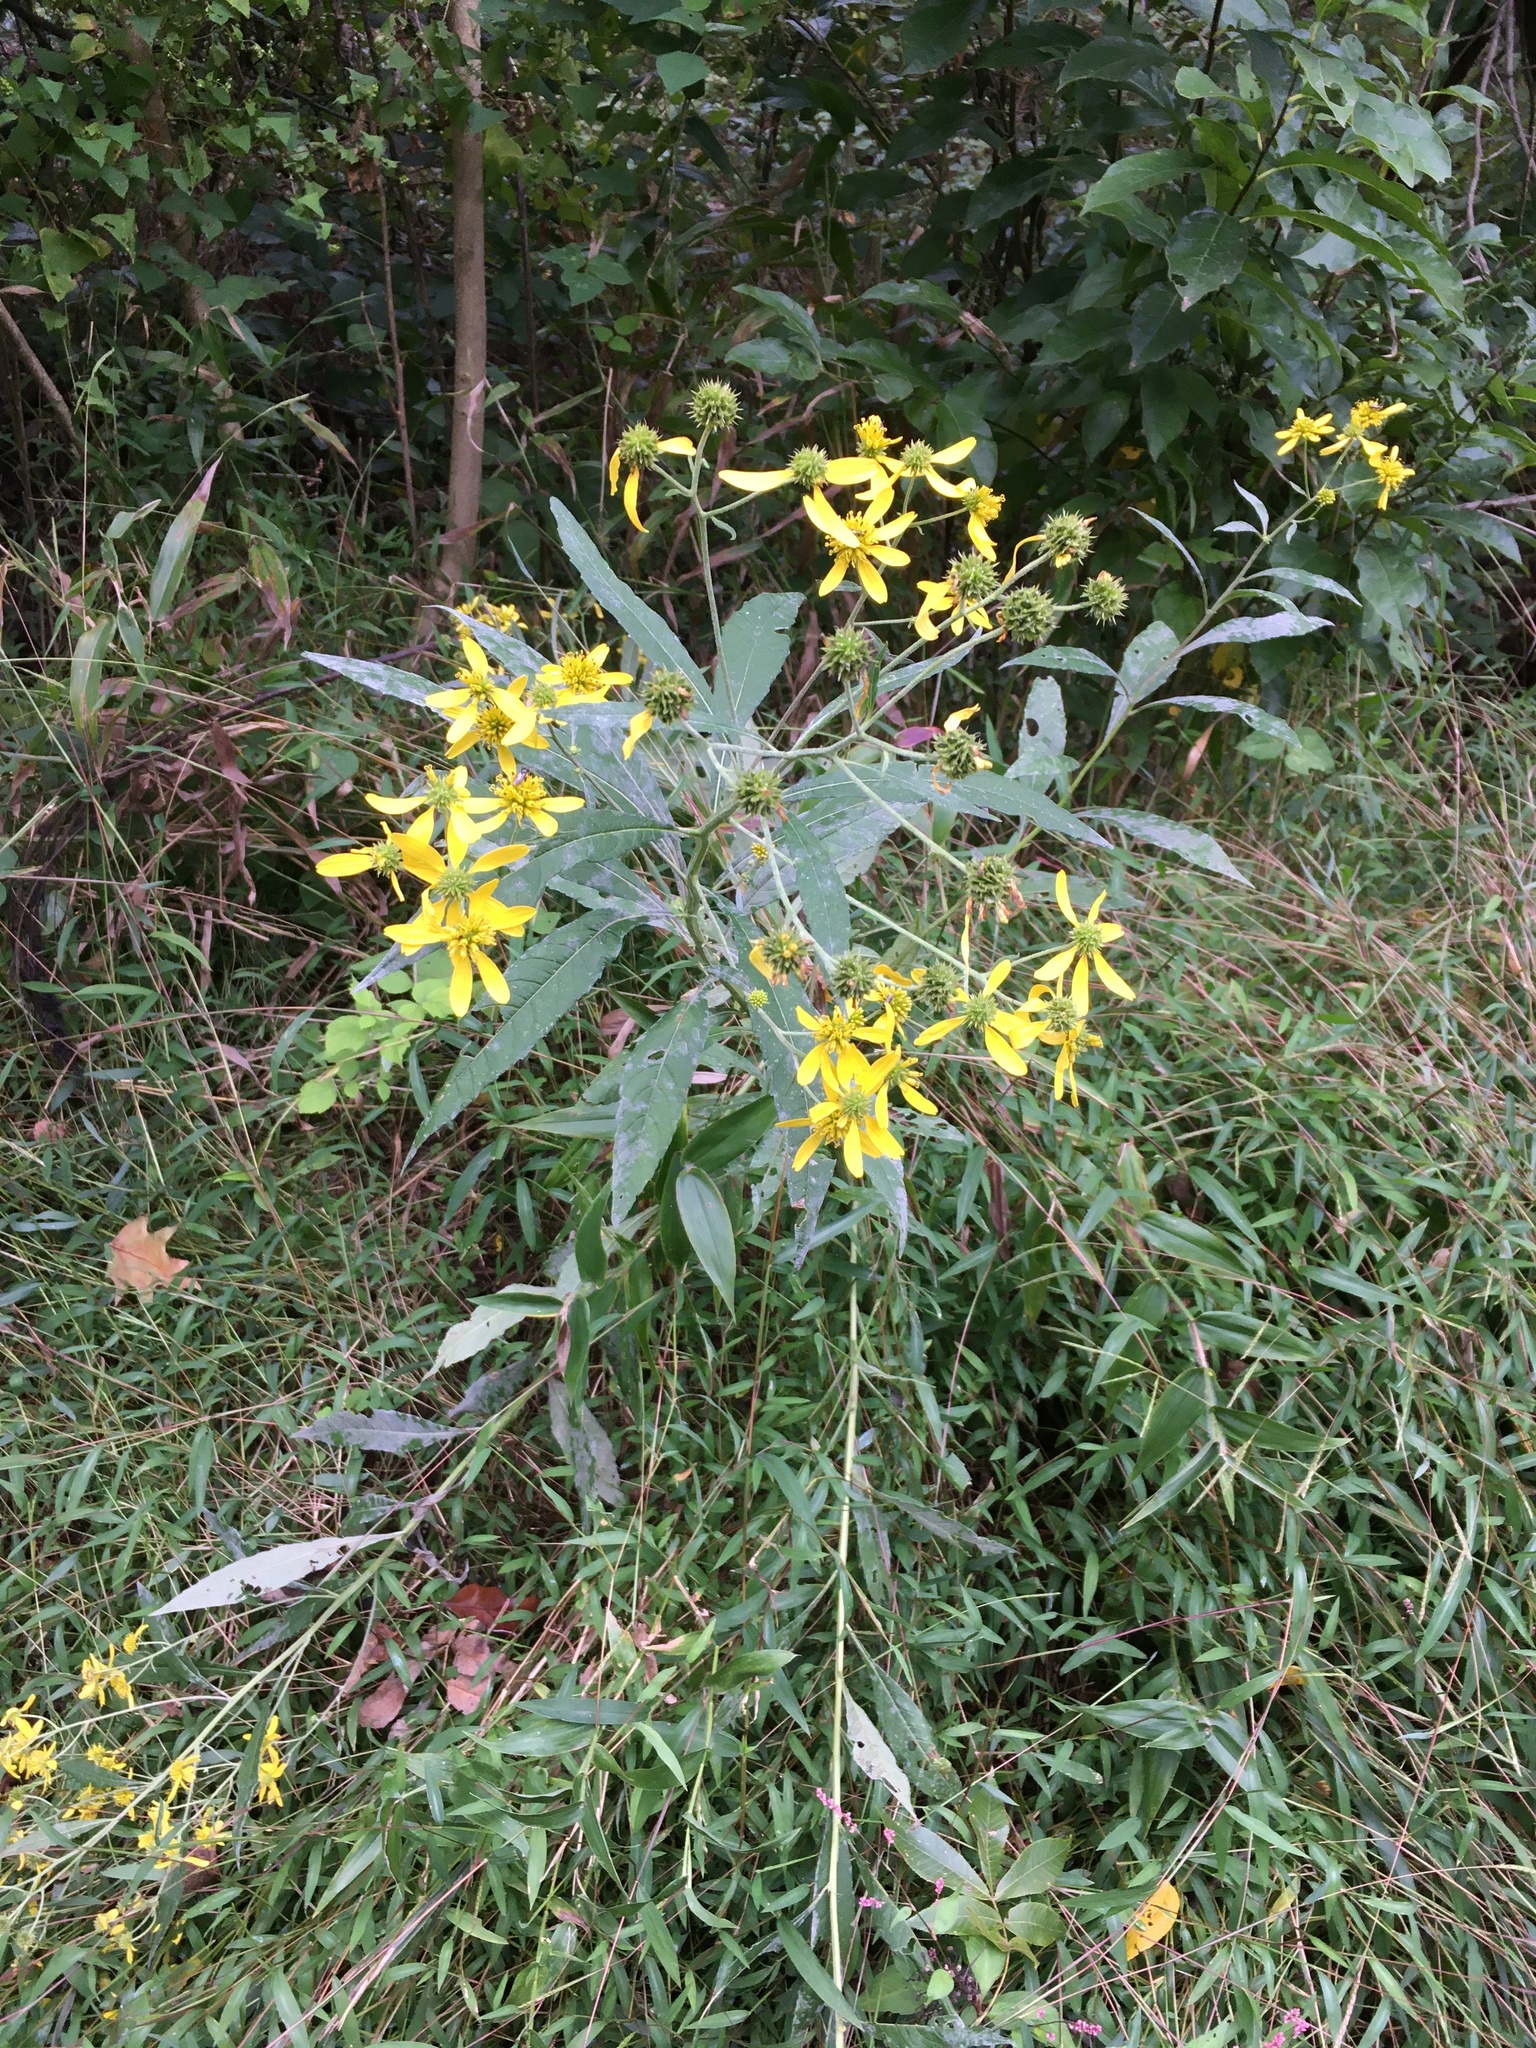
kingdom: Plantae
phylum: Tracheophyta
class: Magnoliopsida
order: Asterales
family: Asteraceae
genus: Verbesina
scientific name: Verbesina alternifolia
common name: Wingstem
